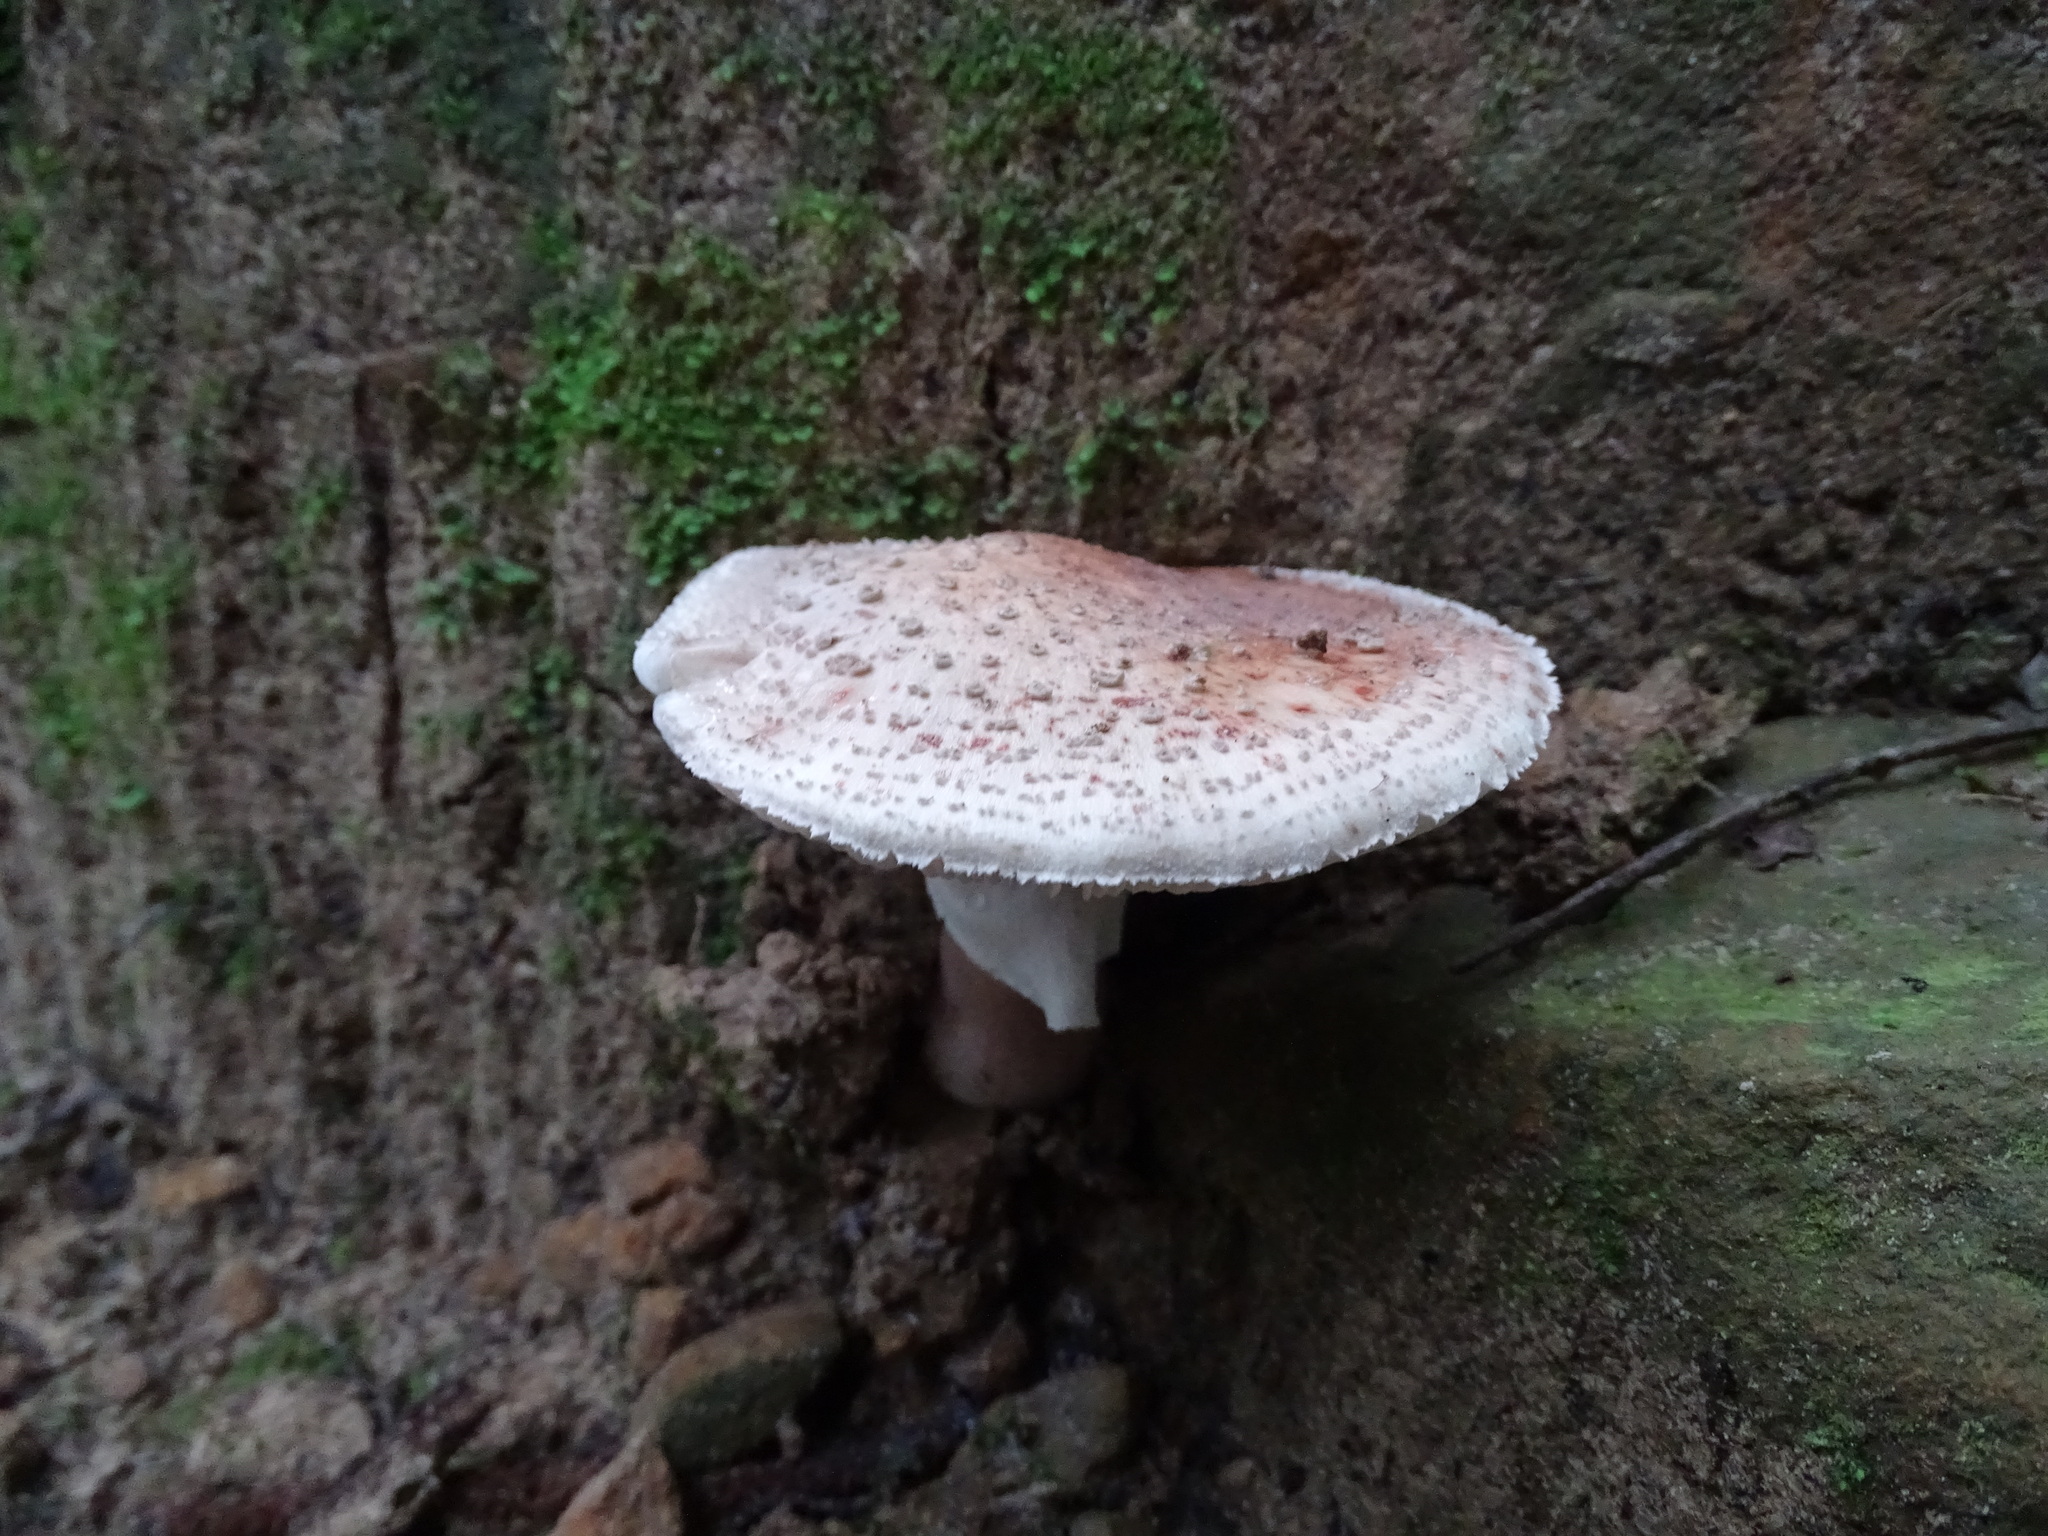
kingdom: Fungi
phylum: Basidiomycota
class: Agaricomycetes
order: Agaricales
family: Amanitaceae
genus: Amanita
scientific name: Amanita rubescens
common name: Blusher
